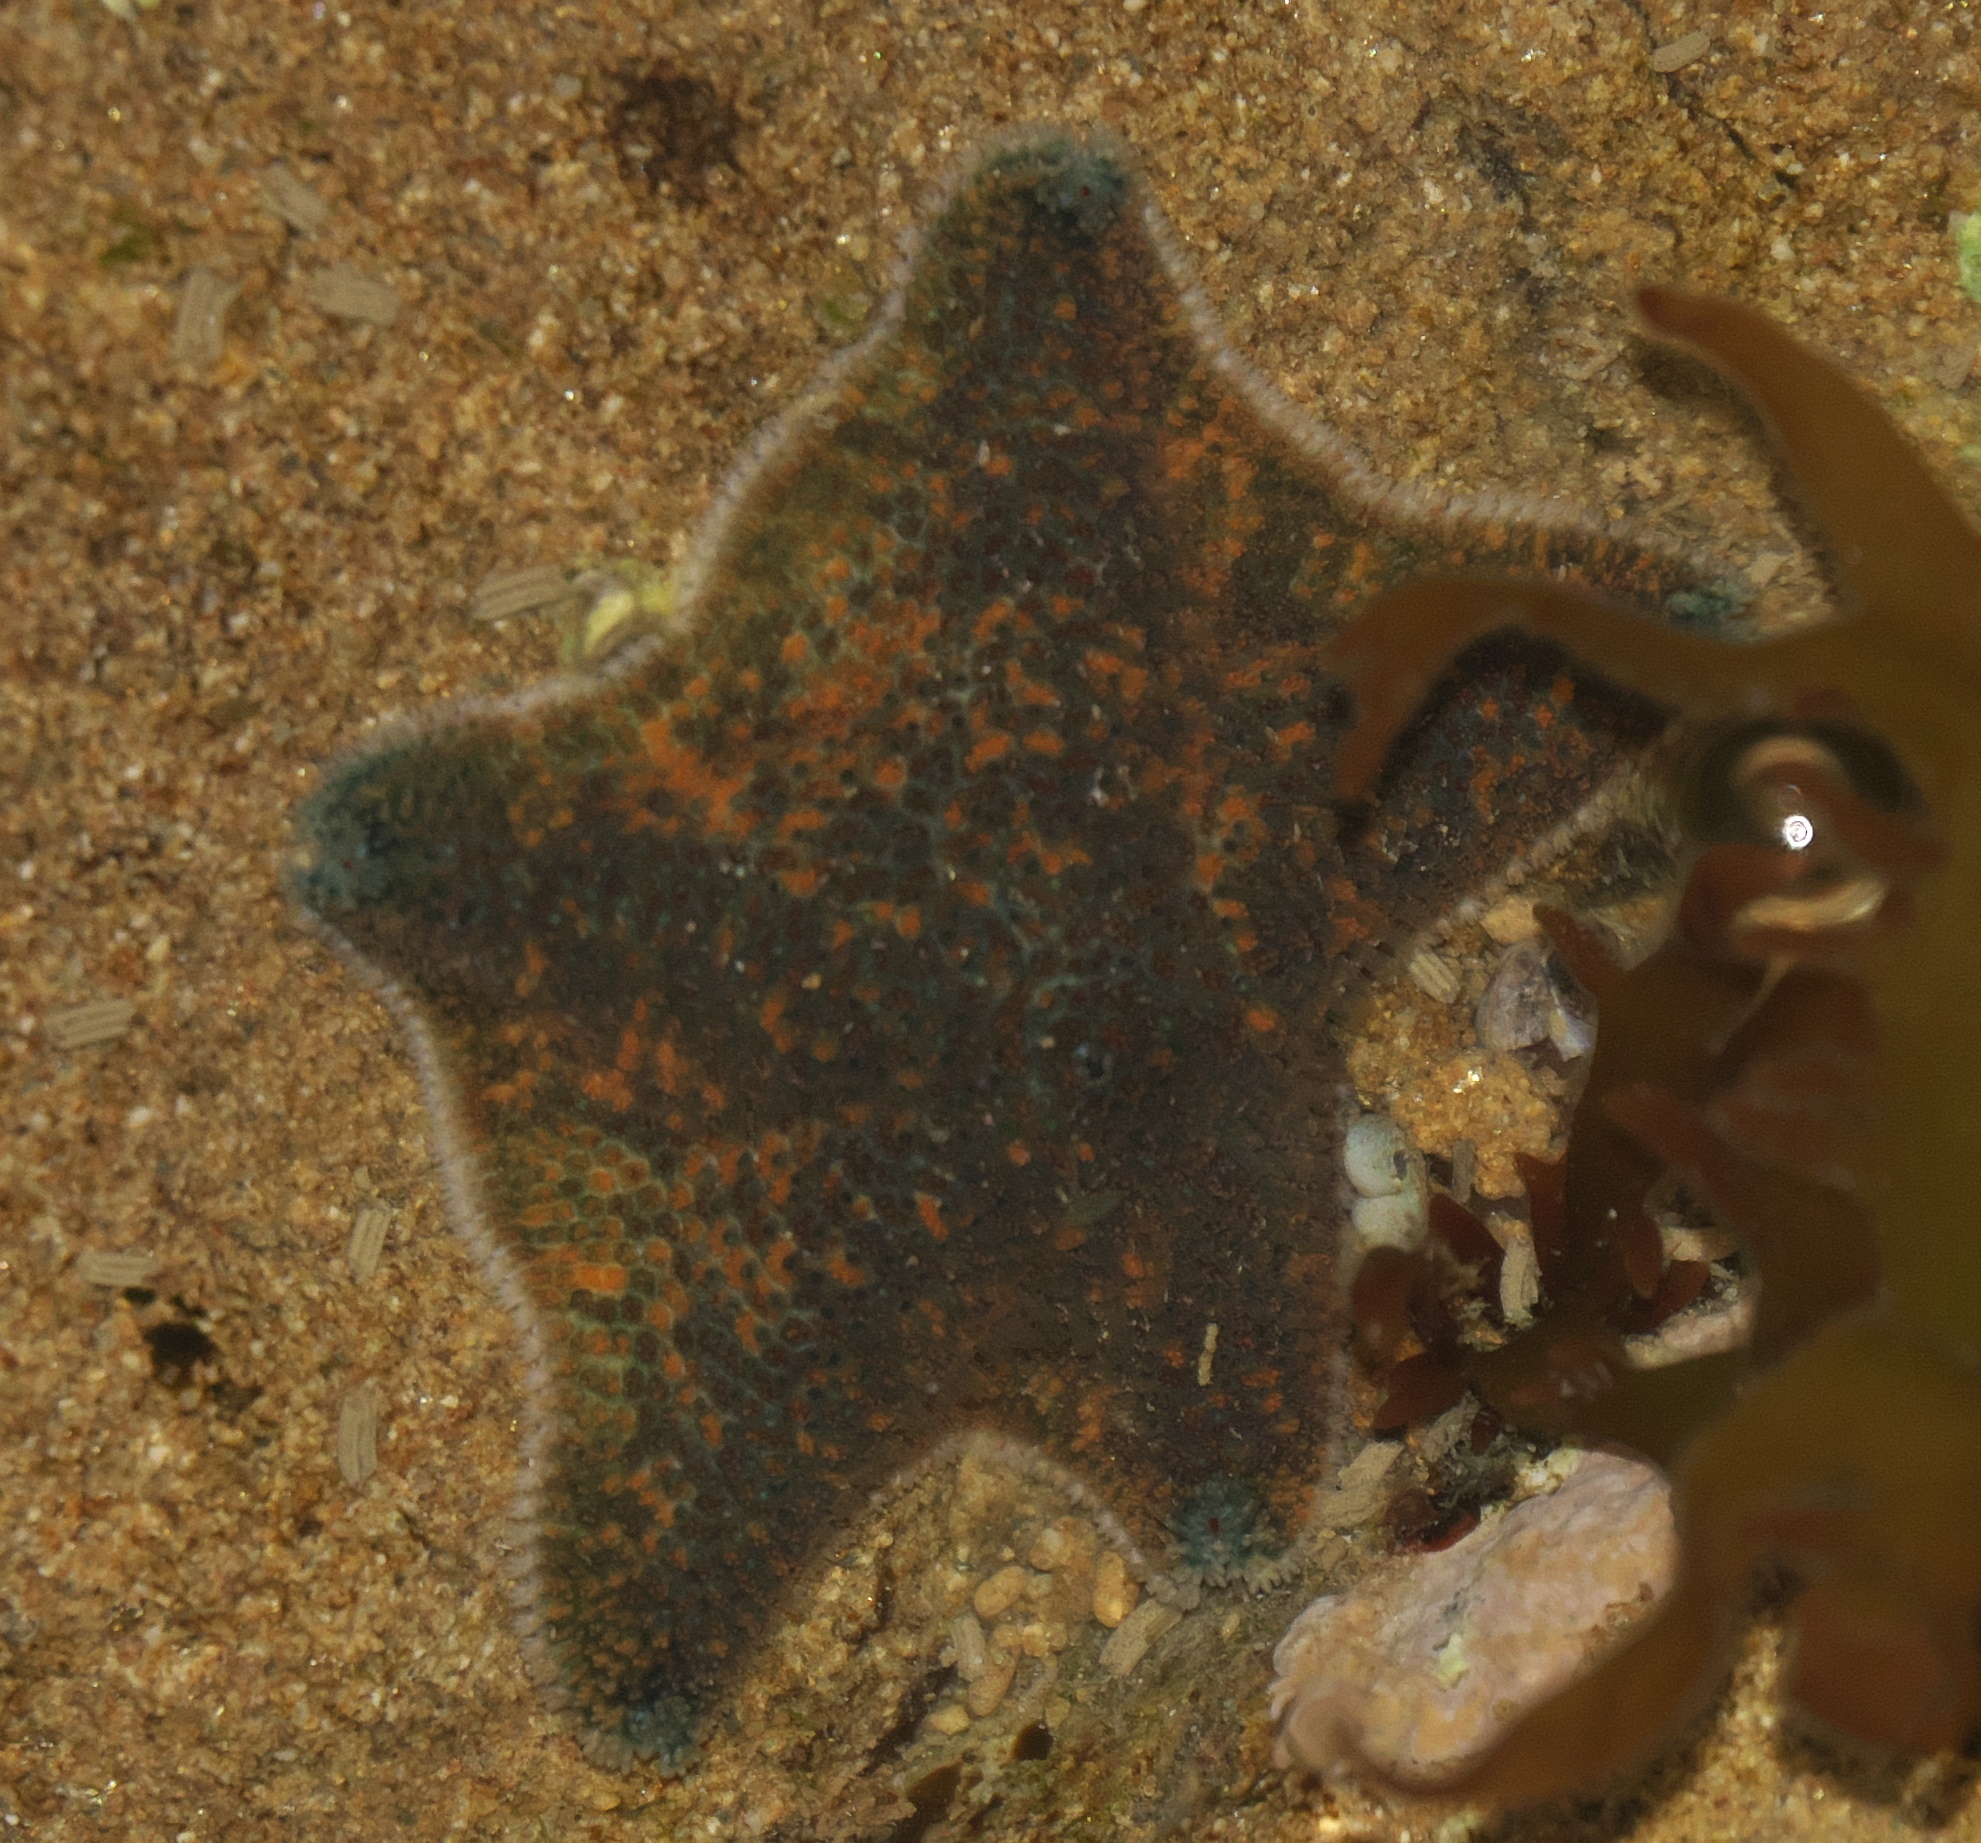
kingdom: Animalia
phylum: Echinodermata
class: Asteroidea
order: Valvatida
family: Asterinidae
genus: Patiriella
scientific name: Patiriella regularis
